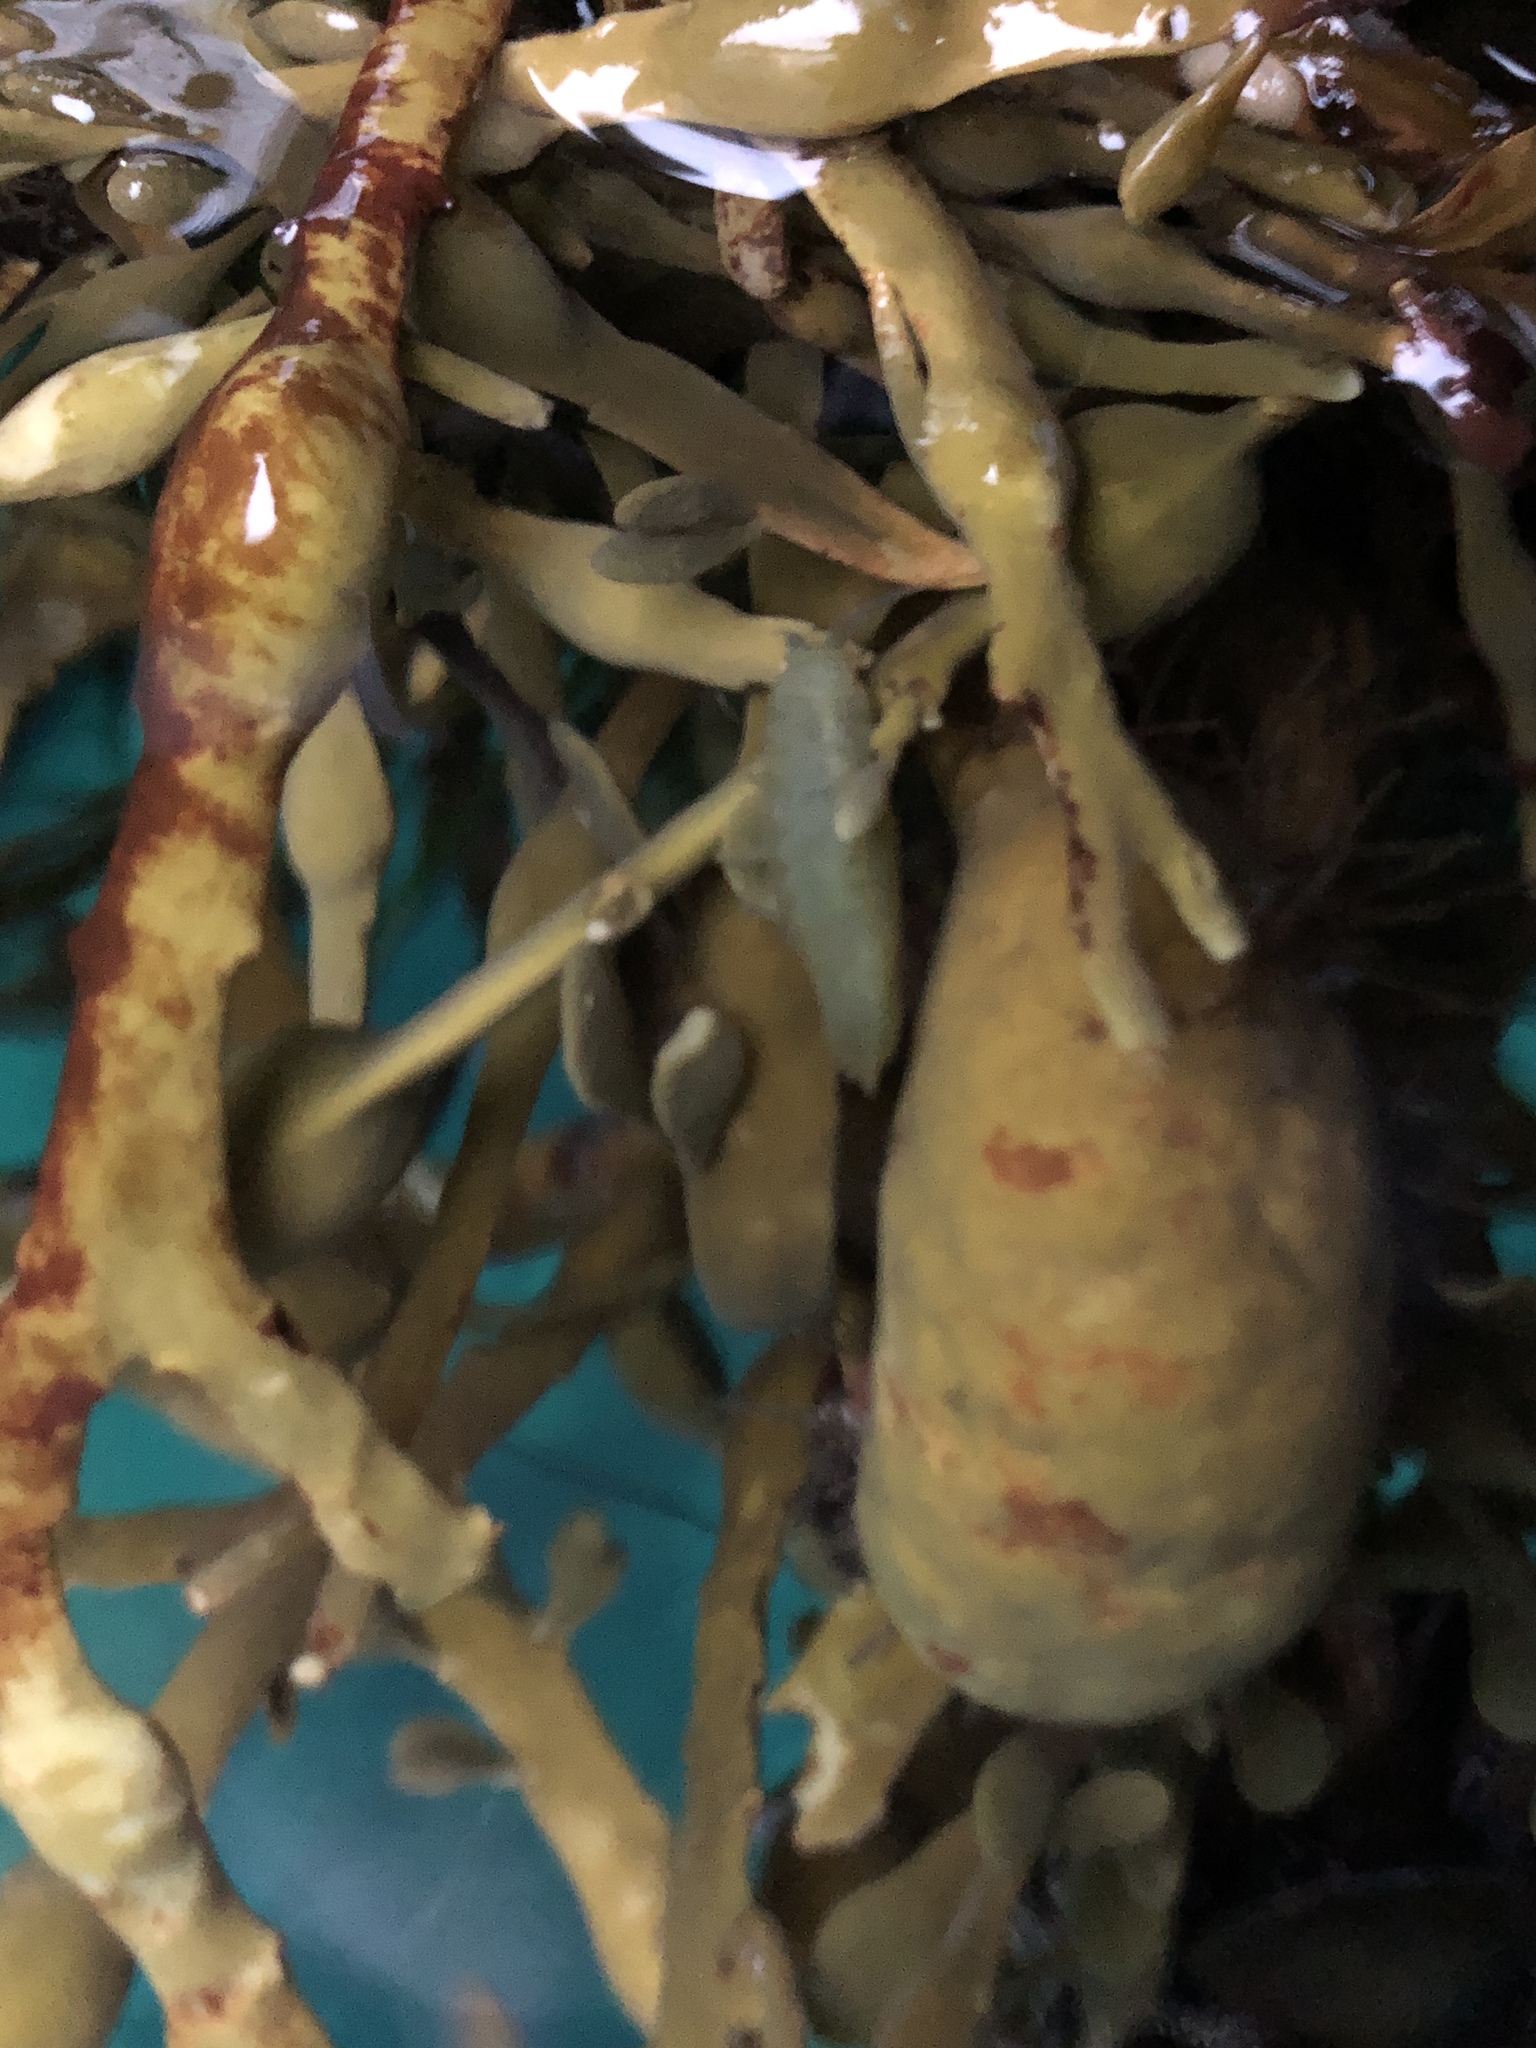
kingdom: Animalia
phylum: Arthropoda
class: Malacostraca
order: Isopoda
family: Idoteidae
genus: Idotea
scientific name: Idotea granulosa
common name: Granular marine isopod
